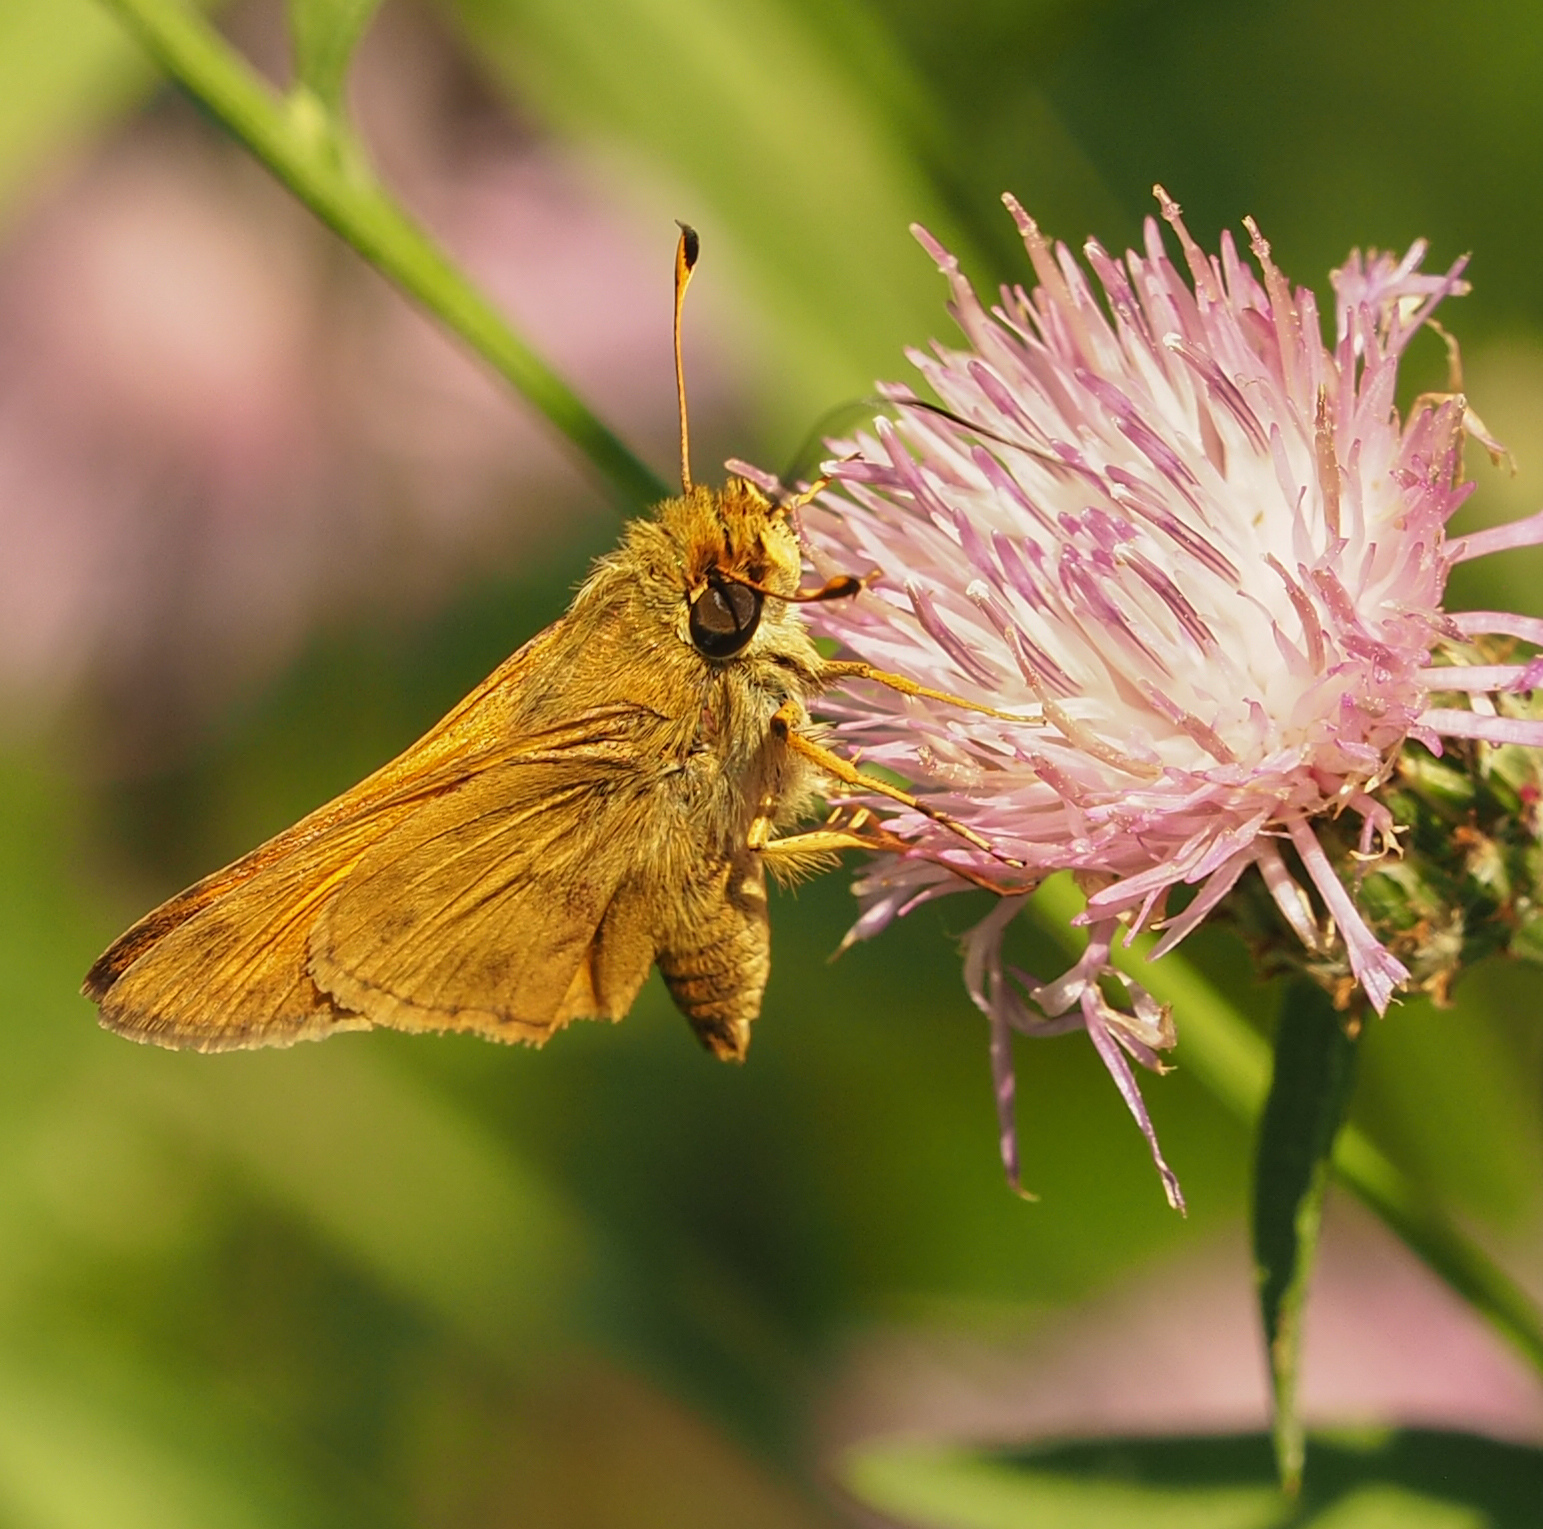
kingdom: Animalia
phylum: Arthropoda
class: Insecta
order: Lepidoptera
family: Hesperiidae
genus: Atalopedes
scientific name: Atalopedes
